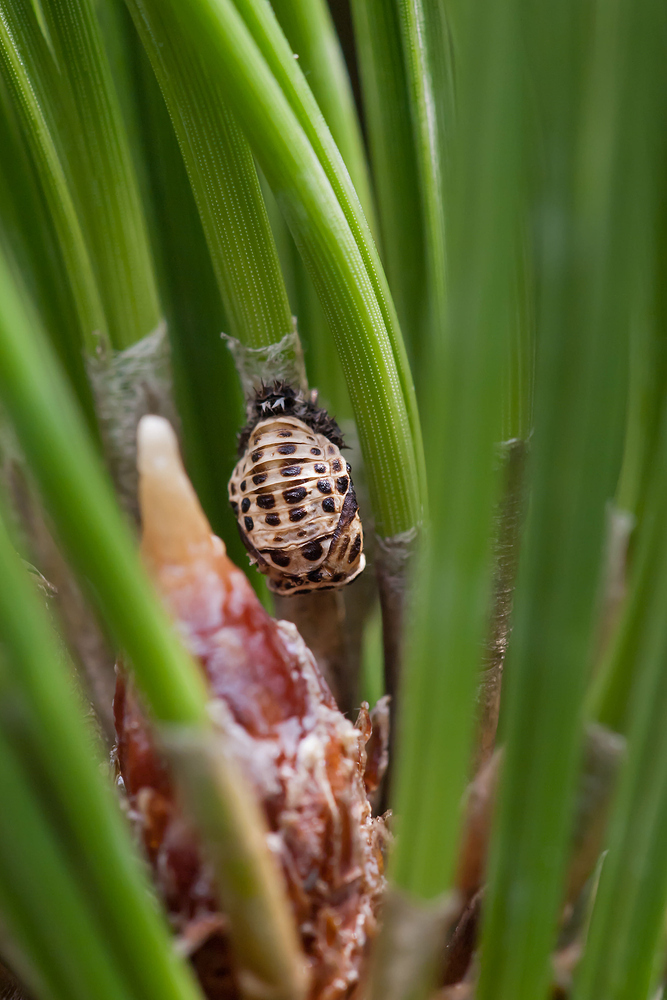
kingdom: Animalia
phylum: Arthropoda
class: Insecta
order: Coleoptera
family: Coccinellidae
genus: Harmonia
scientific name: Harmonia quadripunctata
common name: Cream-streaked ladybird
